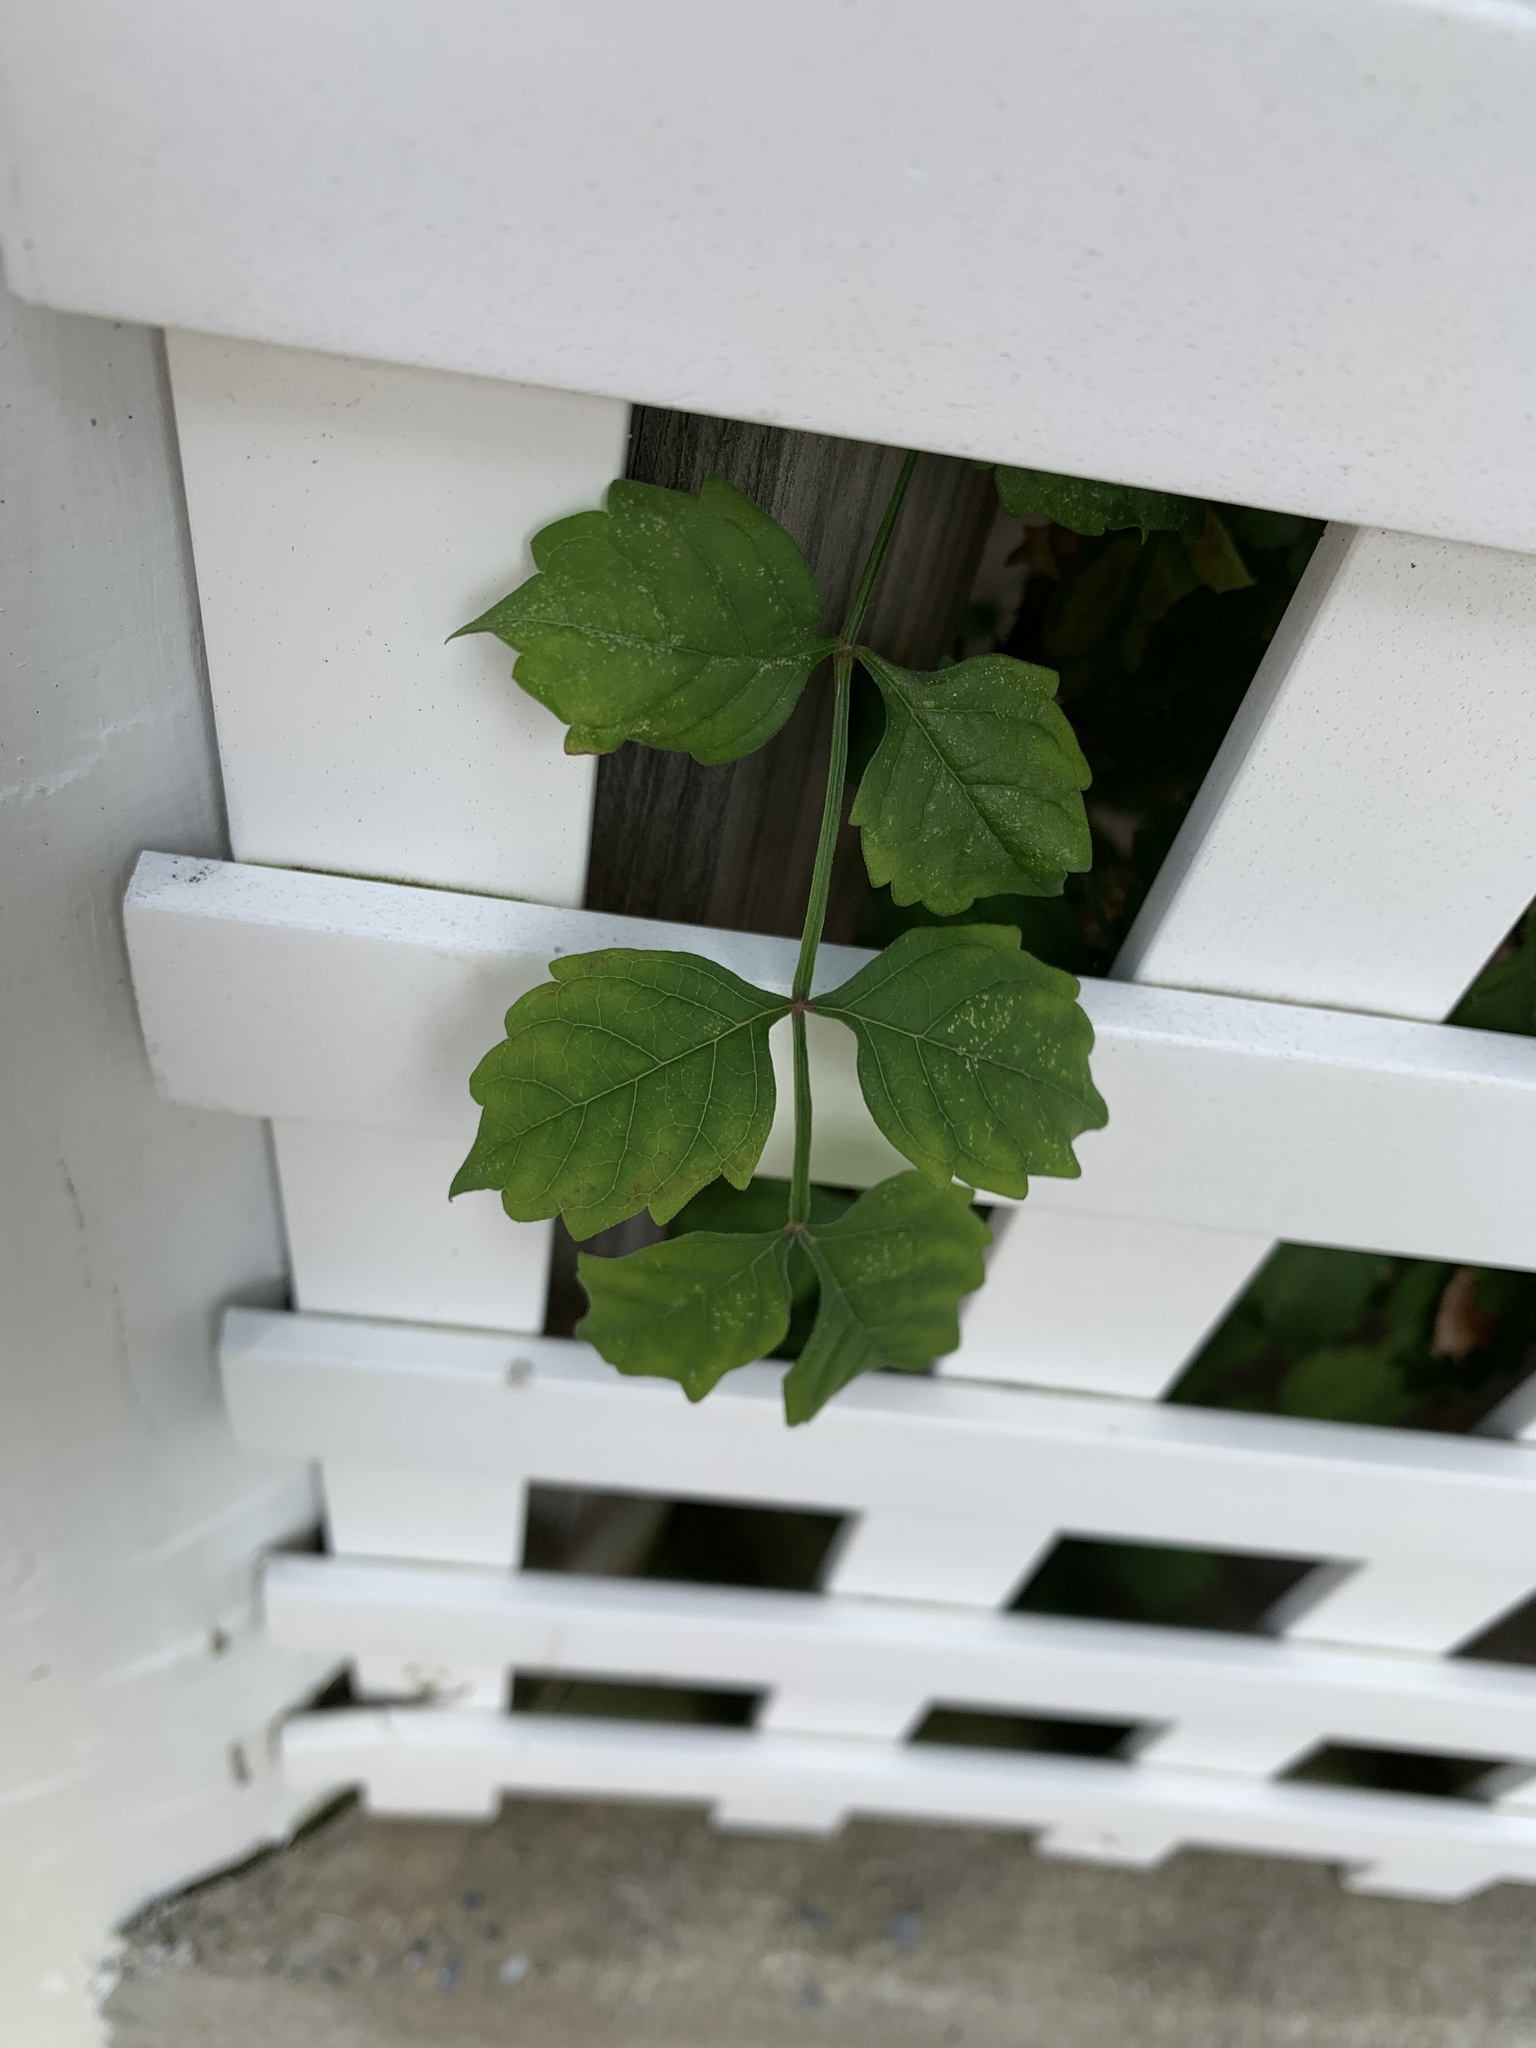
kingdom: Plantae
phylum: Tracheophyta
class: Magnoliopsida
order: Lamiales
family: Bignoniaceae
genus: Campsis
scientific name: Campsis radicans
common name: Trumpet-creeper
